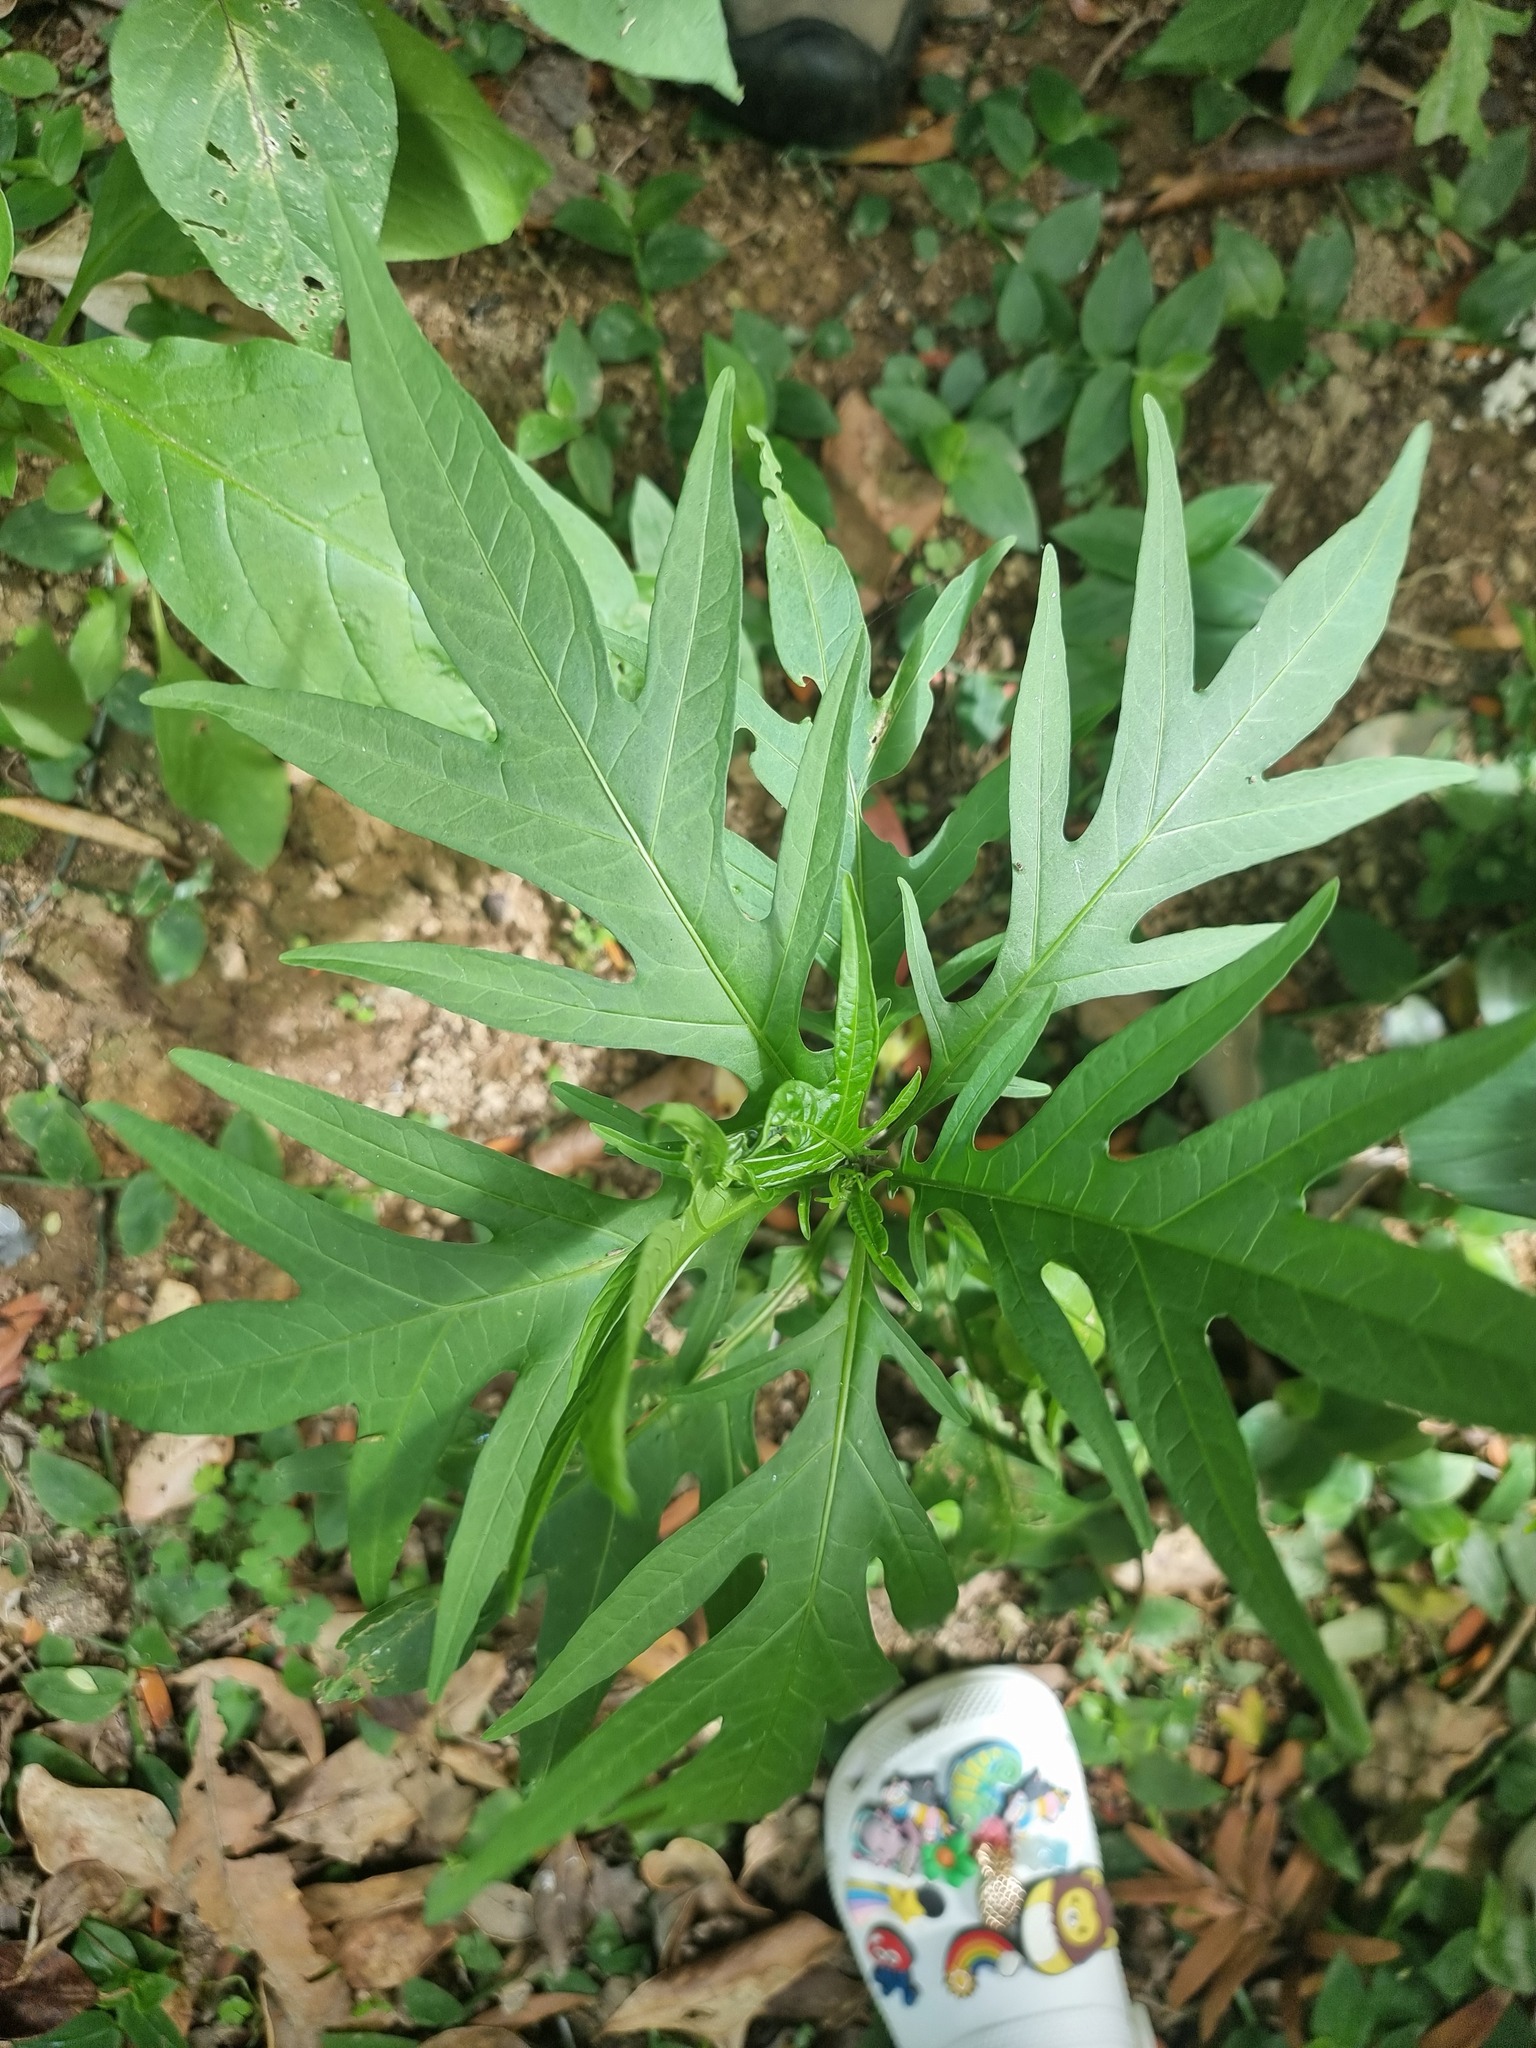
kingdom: Plantae
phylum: Tracheophyta
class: Magnoliopsida
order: Solanales
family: Solanaceae
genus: Solanum
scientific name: Solanum
